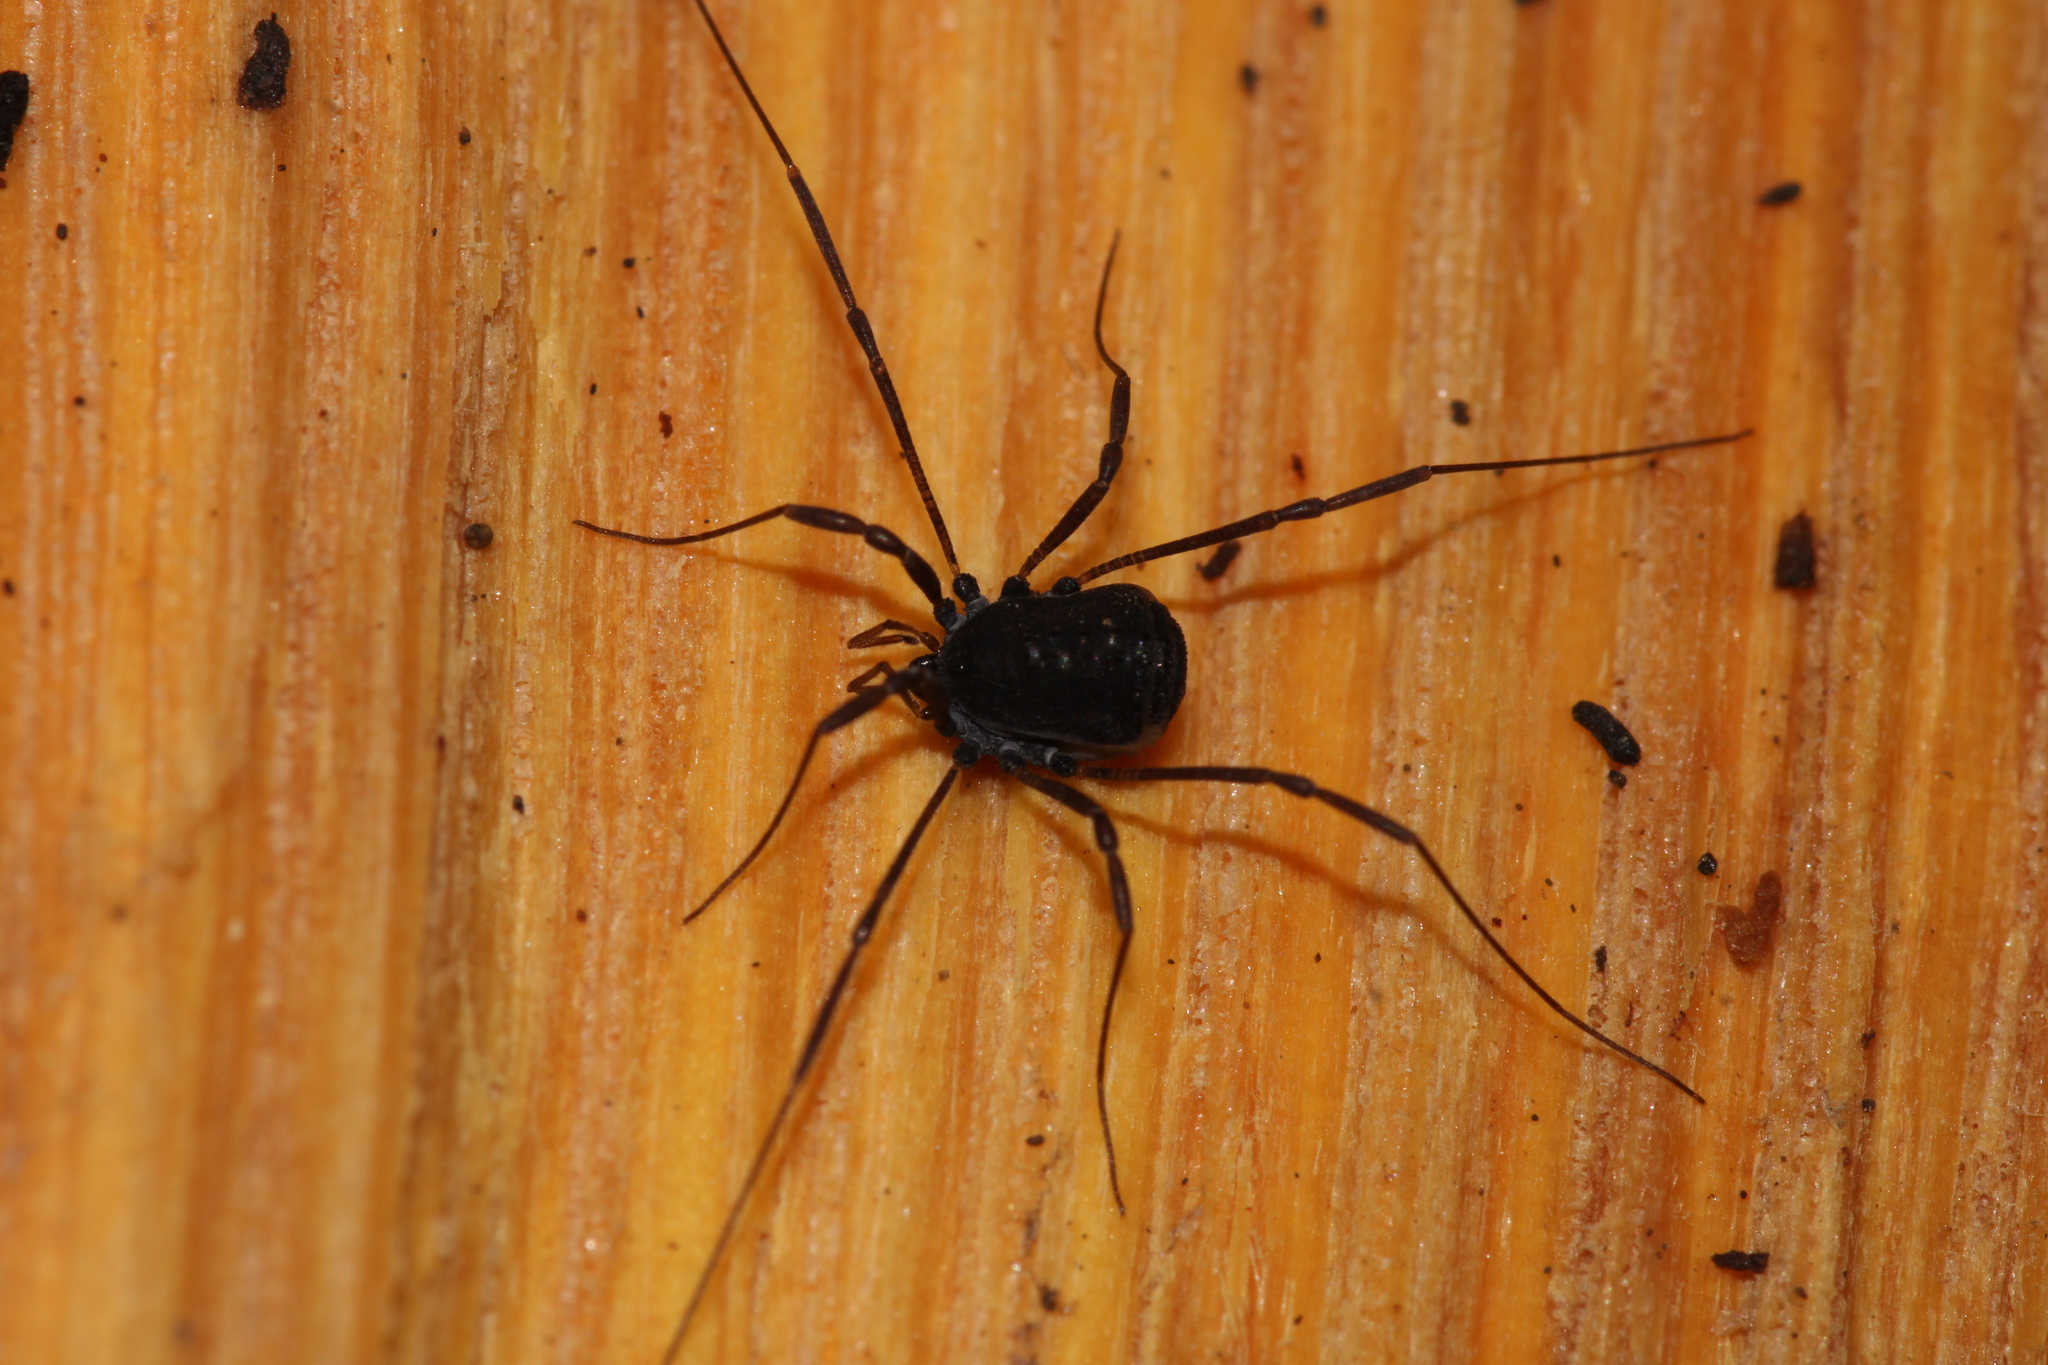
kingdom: Animalia
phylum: Arthropoda
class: Arachnida
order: Opiliones
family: Nemastomatidae
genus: Histricostoma
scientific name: Histricostoma dentipalpe
